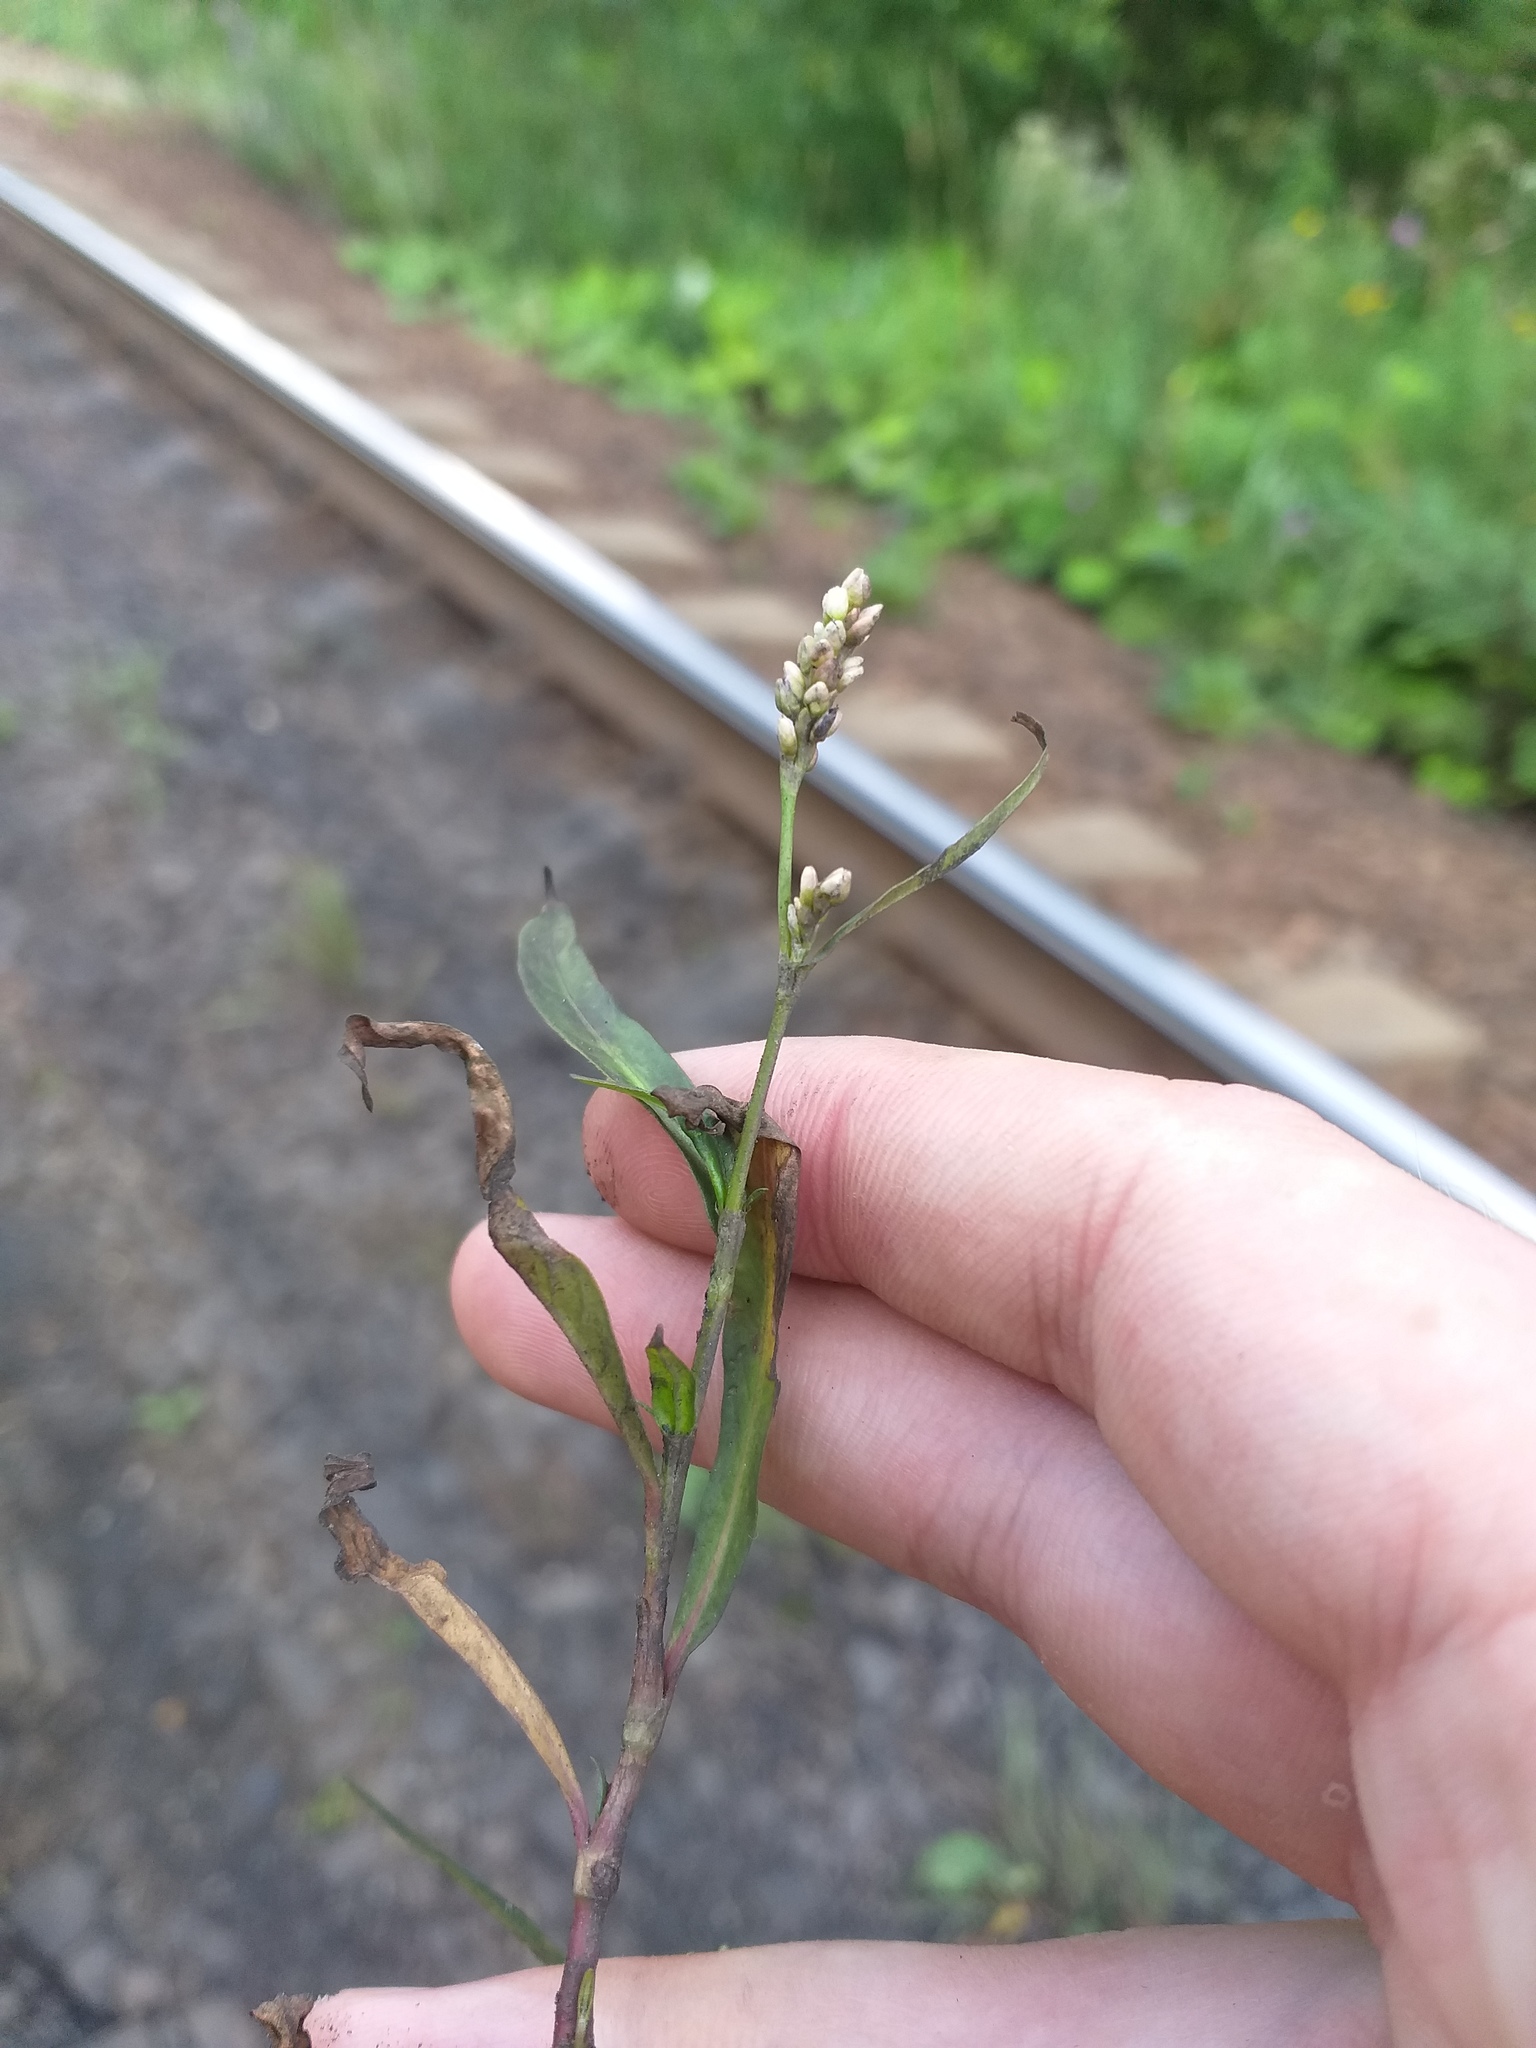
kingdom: Plantae
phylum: Tracheophyta
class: Magnoliopsida
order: Caryophyllales
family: Polygonaceae
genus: Persicaria
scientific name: Persicaria maculosa
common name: Redshank
